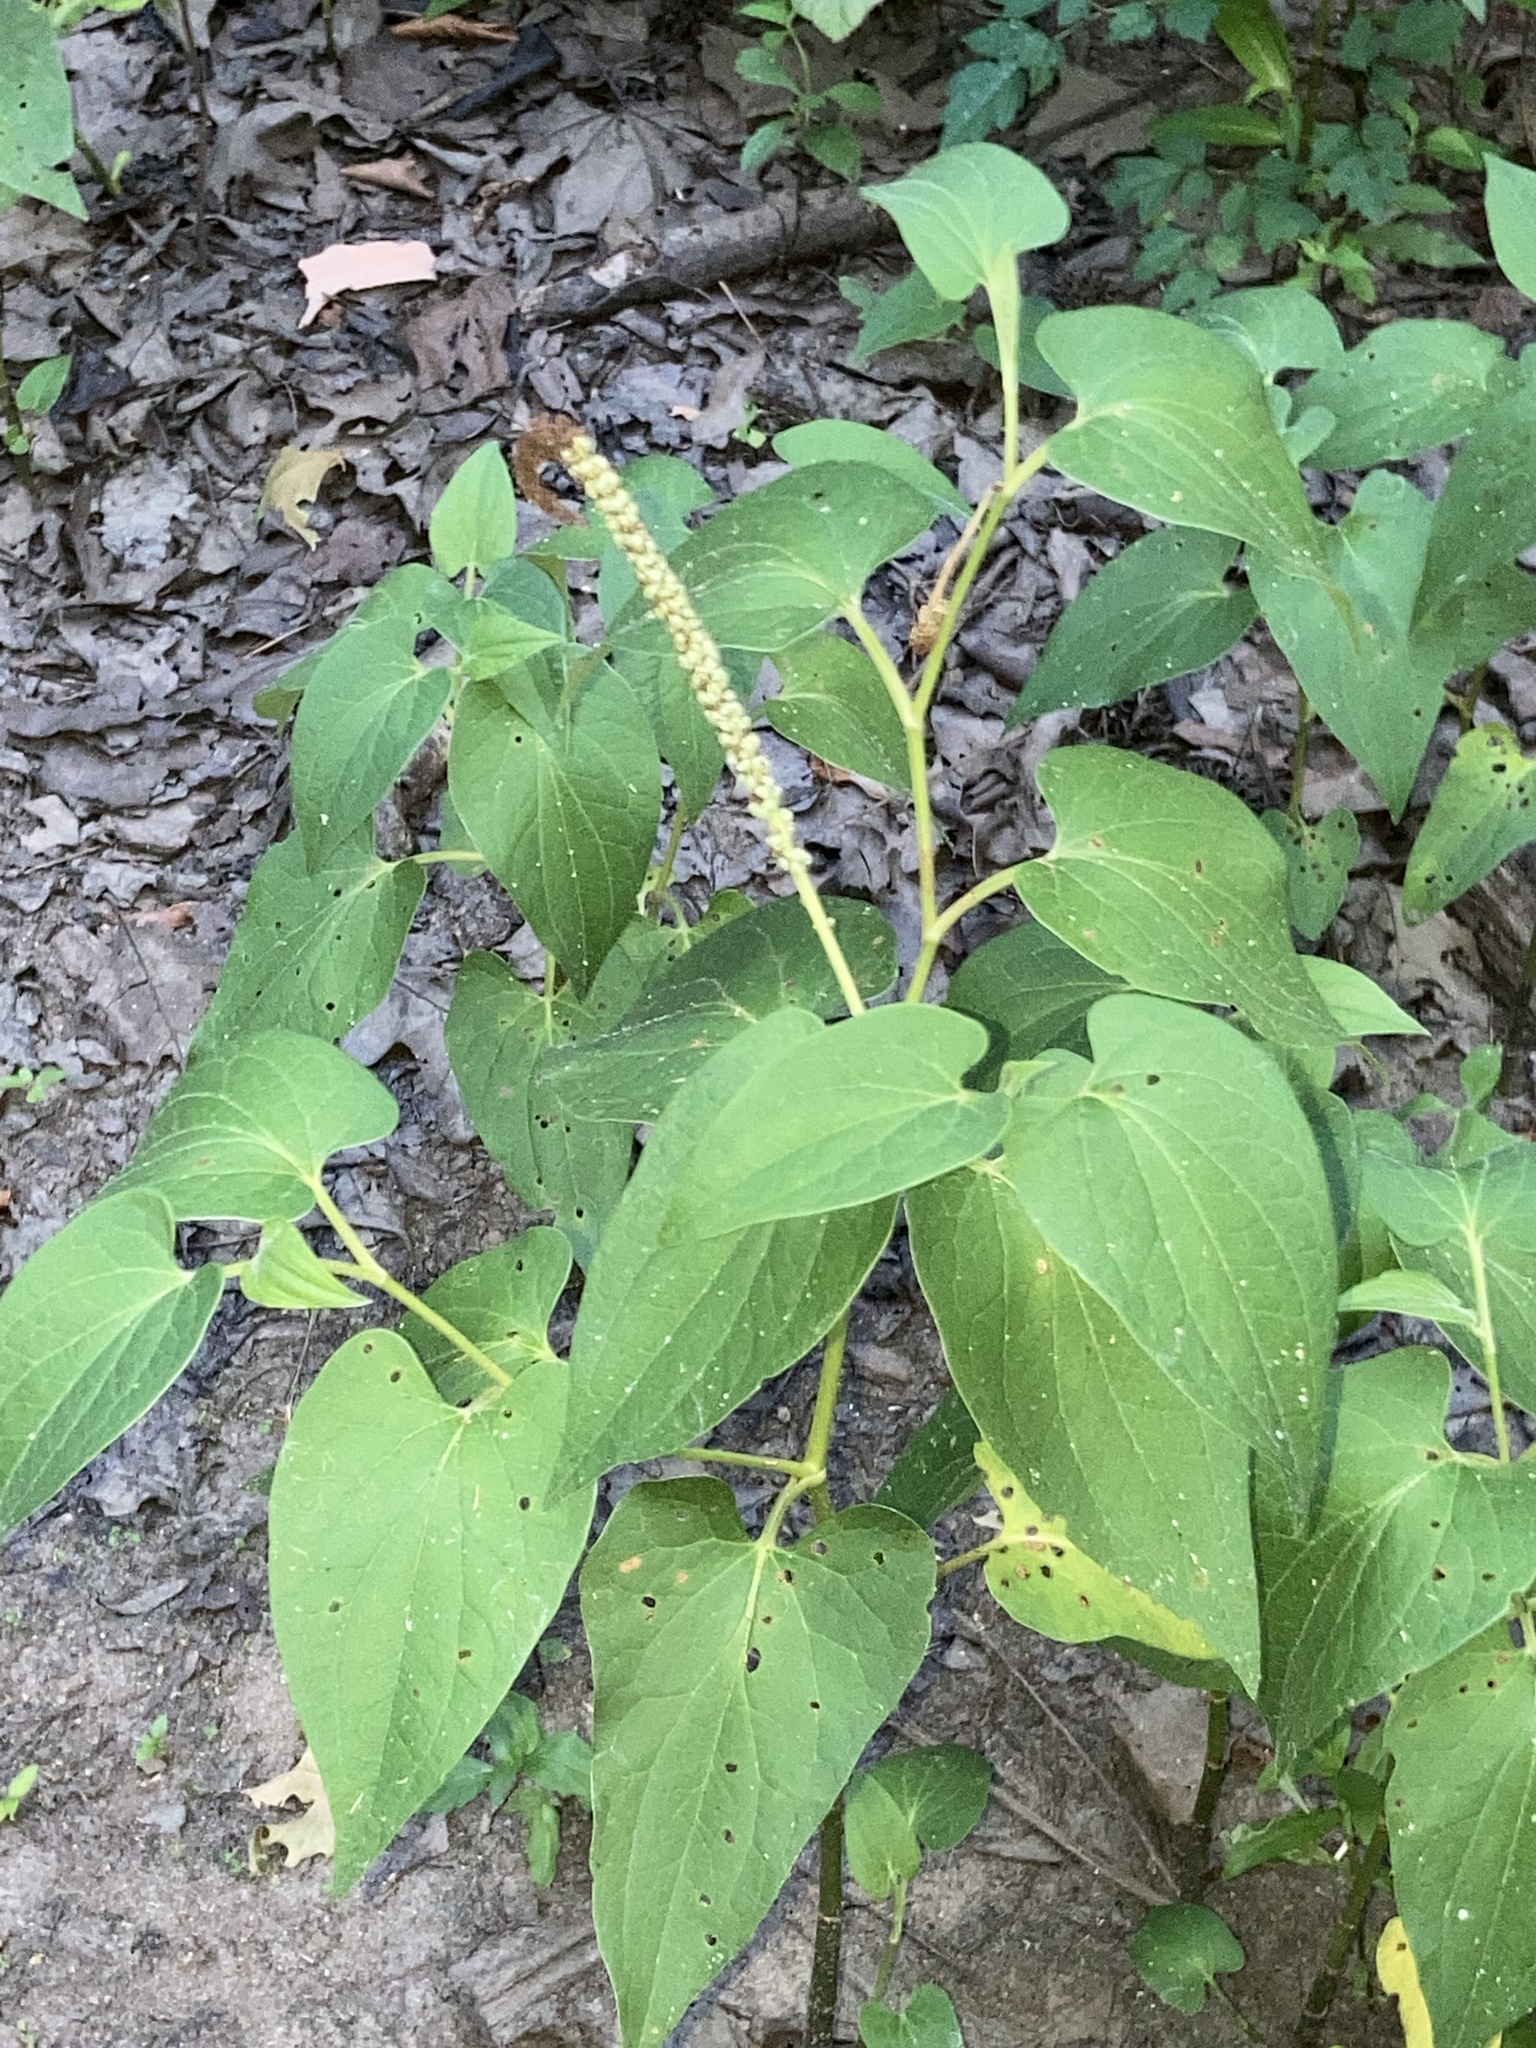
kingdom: Plantae
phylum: Tracheophyta
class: Magnoliopsida
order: Piperales
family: Saururaceae
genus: Saururus
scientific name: Saururus cernuus
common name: Lizard's-tail
